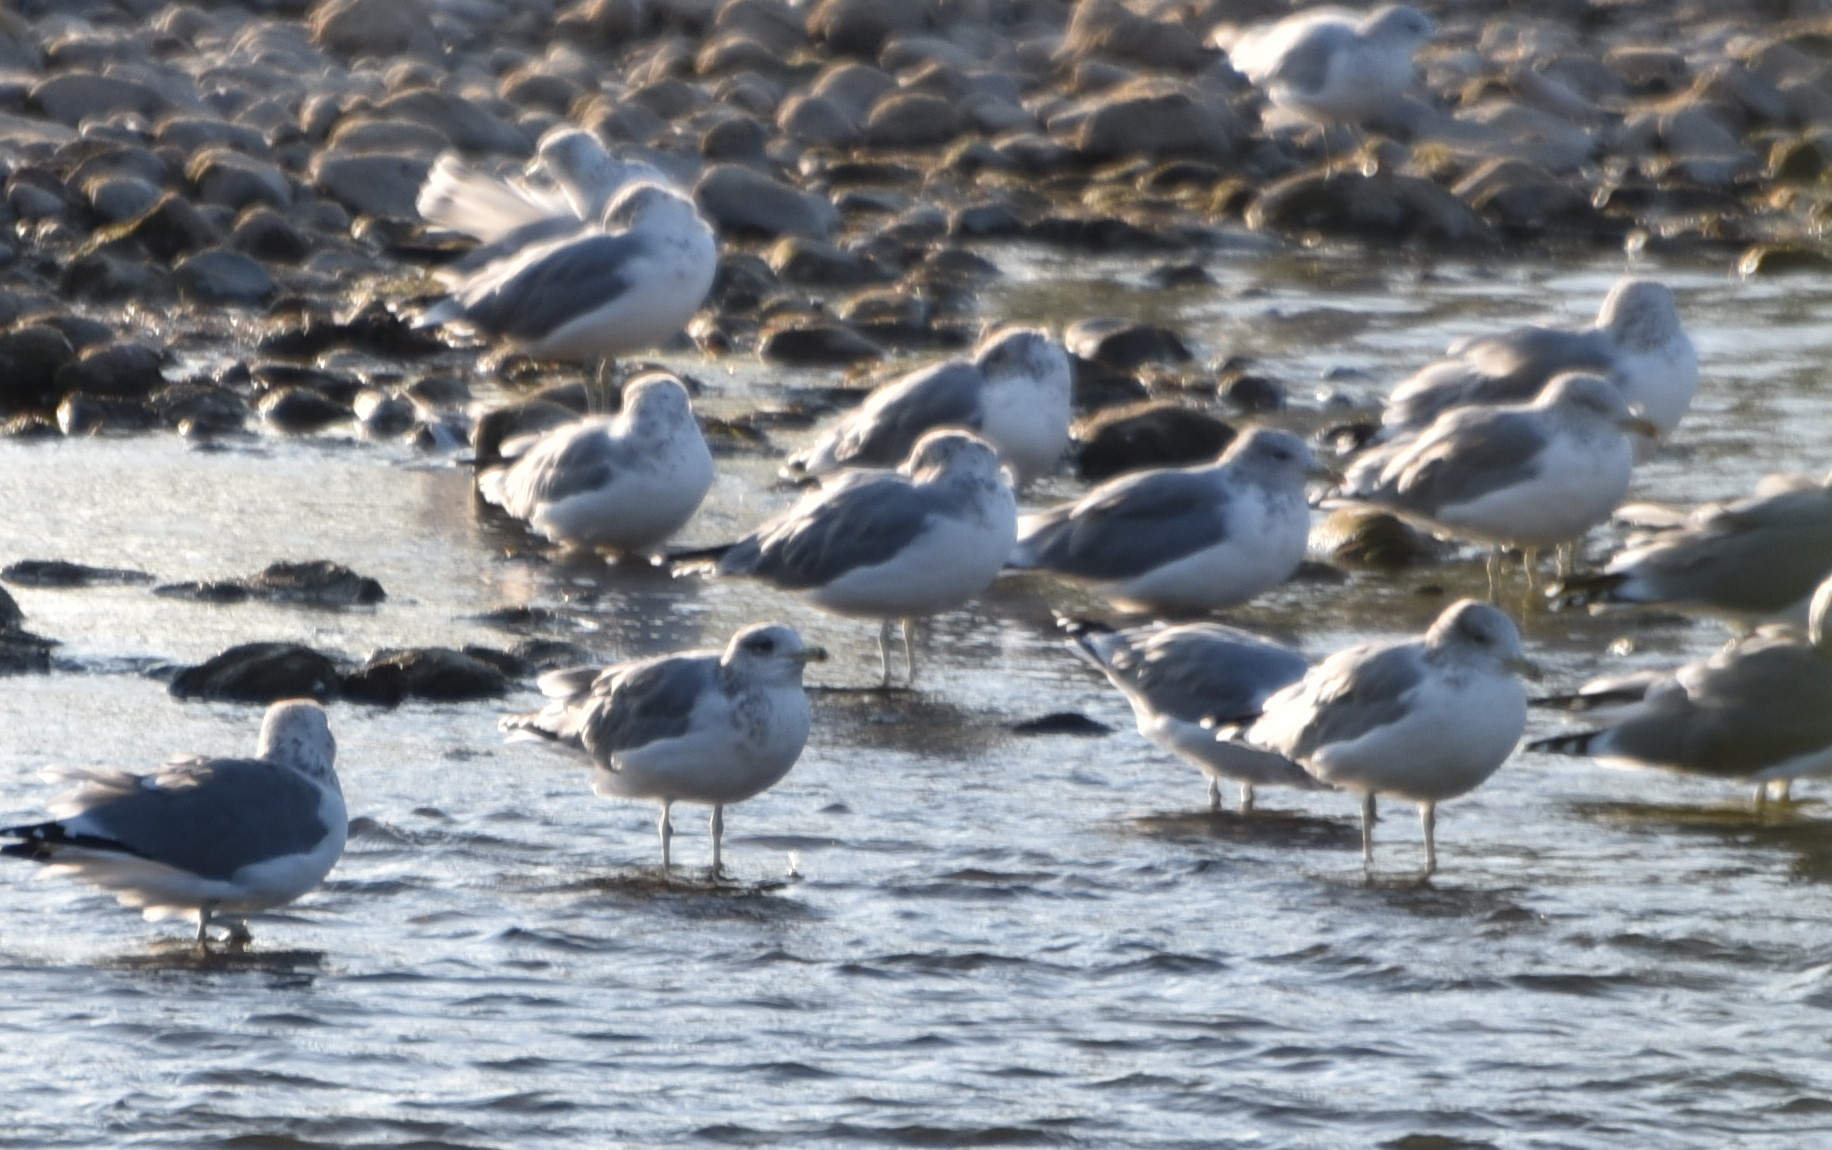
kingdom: Animalia
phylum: Chordata
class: Aves
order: Charadriiformes
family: Laridae
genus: Larus
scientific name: Larus californicus
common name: California gull
